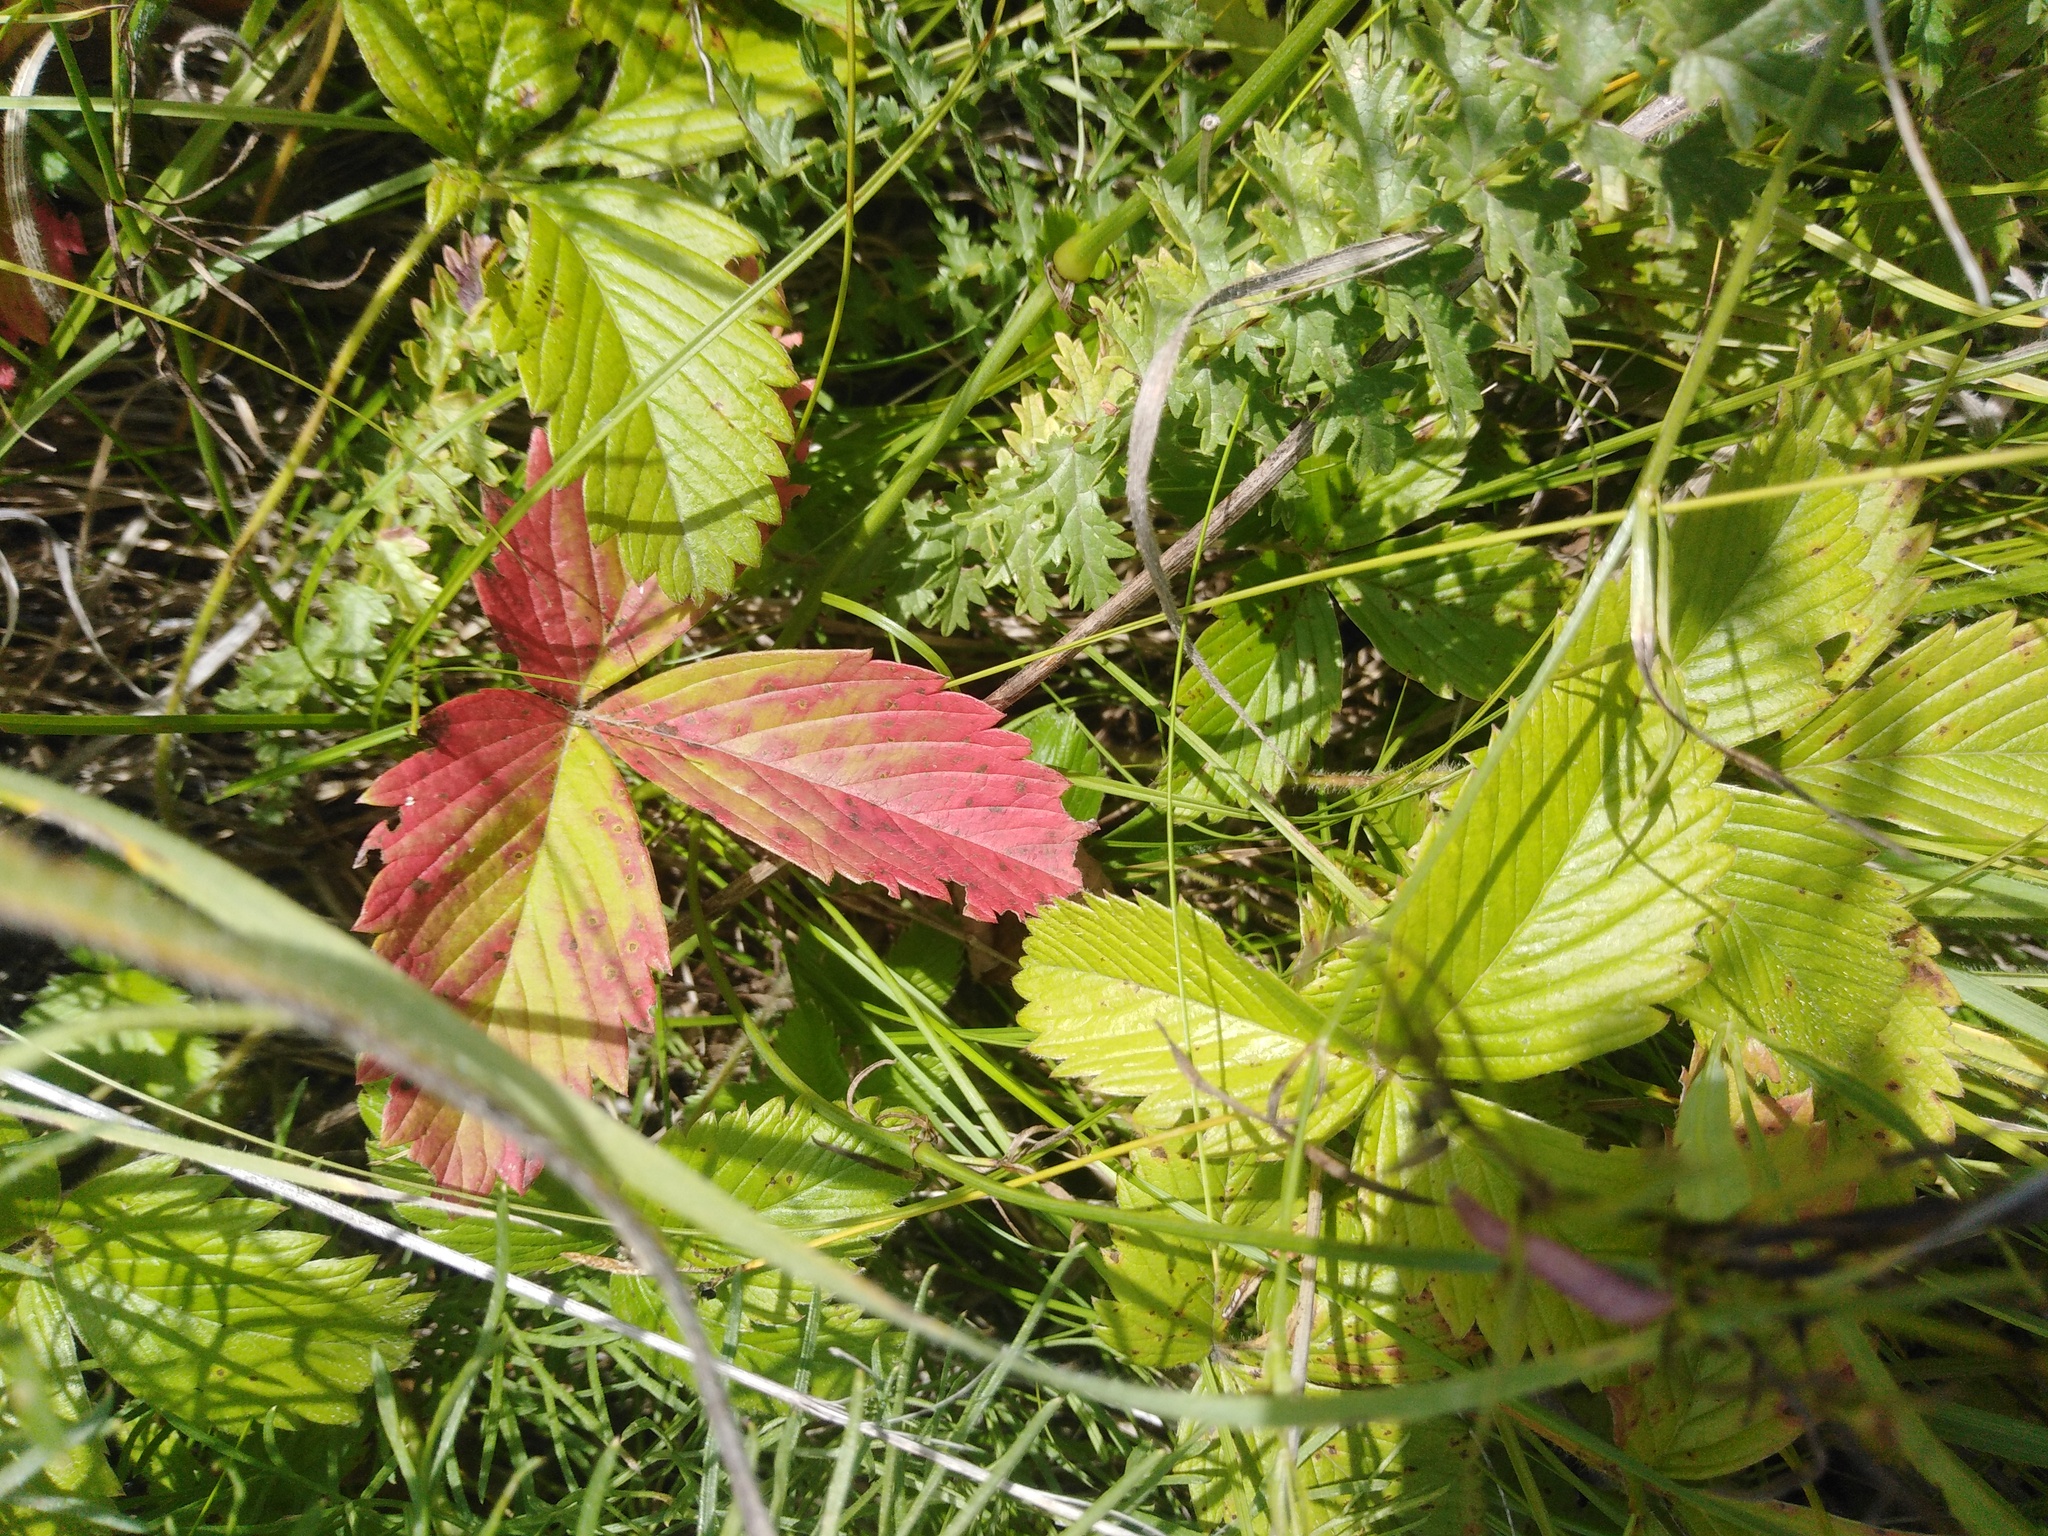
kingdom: Plantae
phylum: Tracheophyta
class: Magnoliopsida
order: Rosales
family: Rosaceae
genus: Fragaria
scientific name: Fragaria viridis
